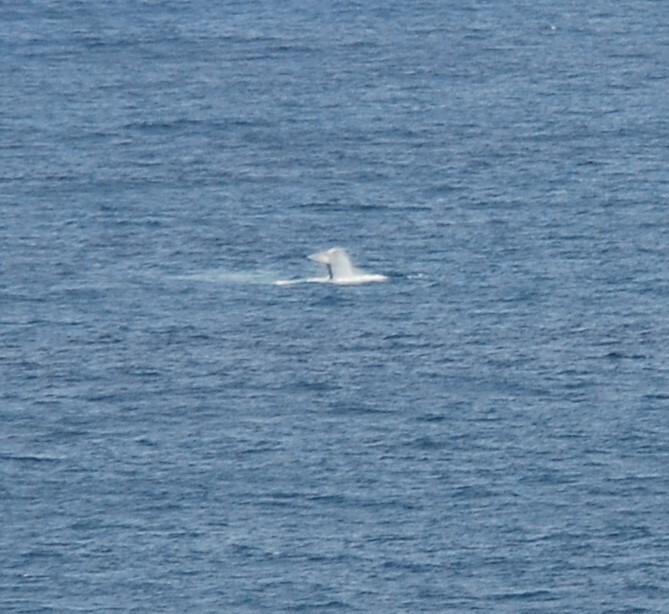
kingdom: Animalia
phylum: Chordata
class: Mammalia
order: Cetacea
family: Balaenopteridae
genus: Megaptera
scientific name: Megaptera novaeangliae
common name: Humpback whale
